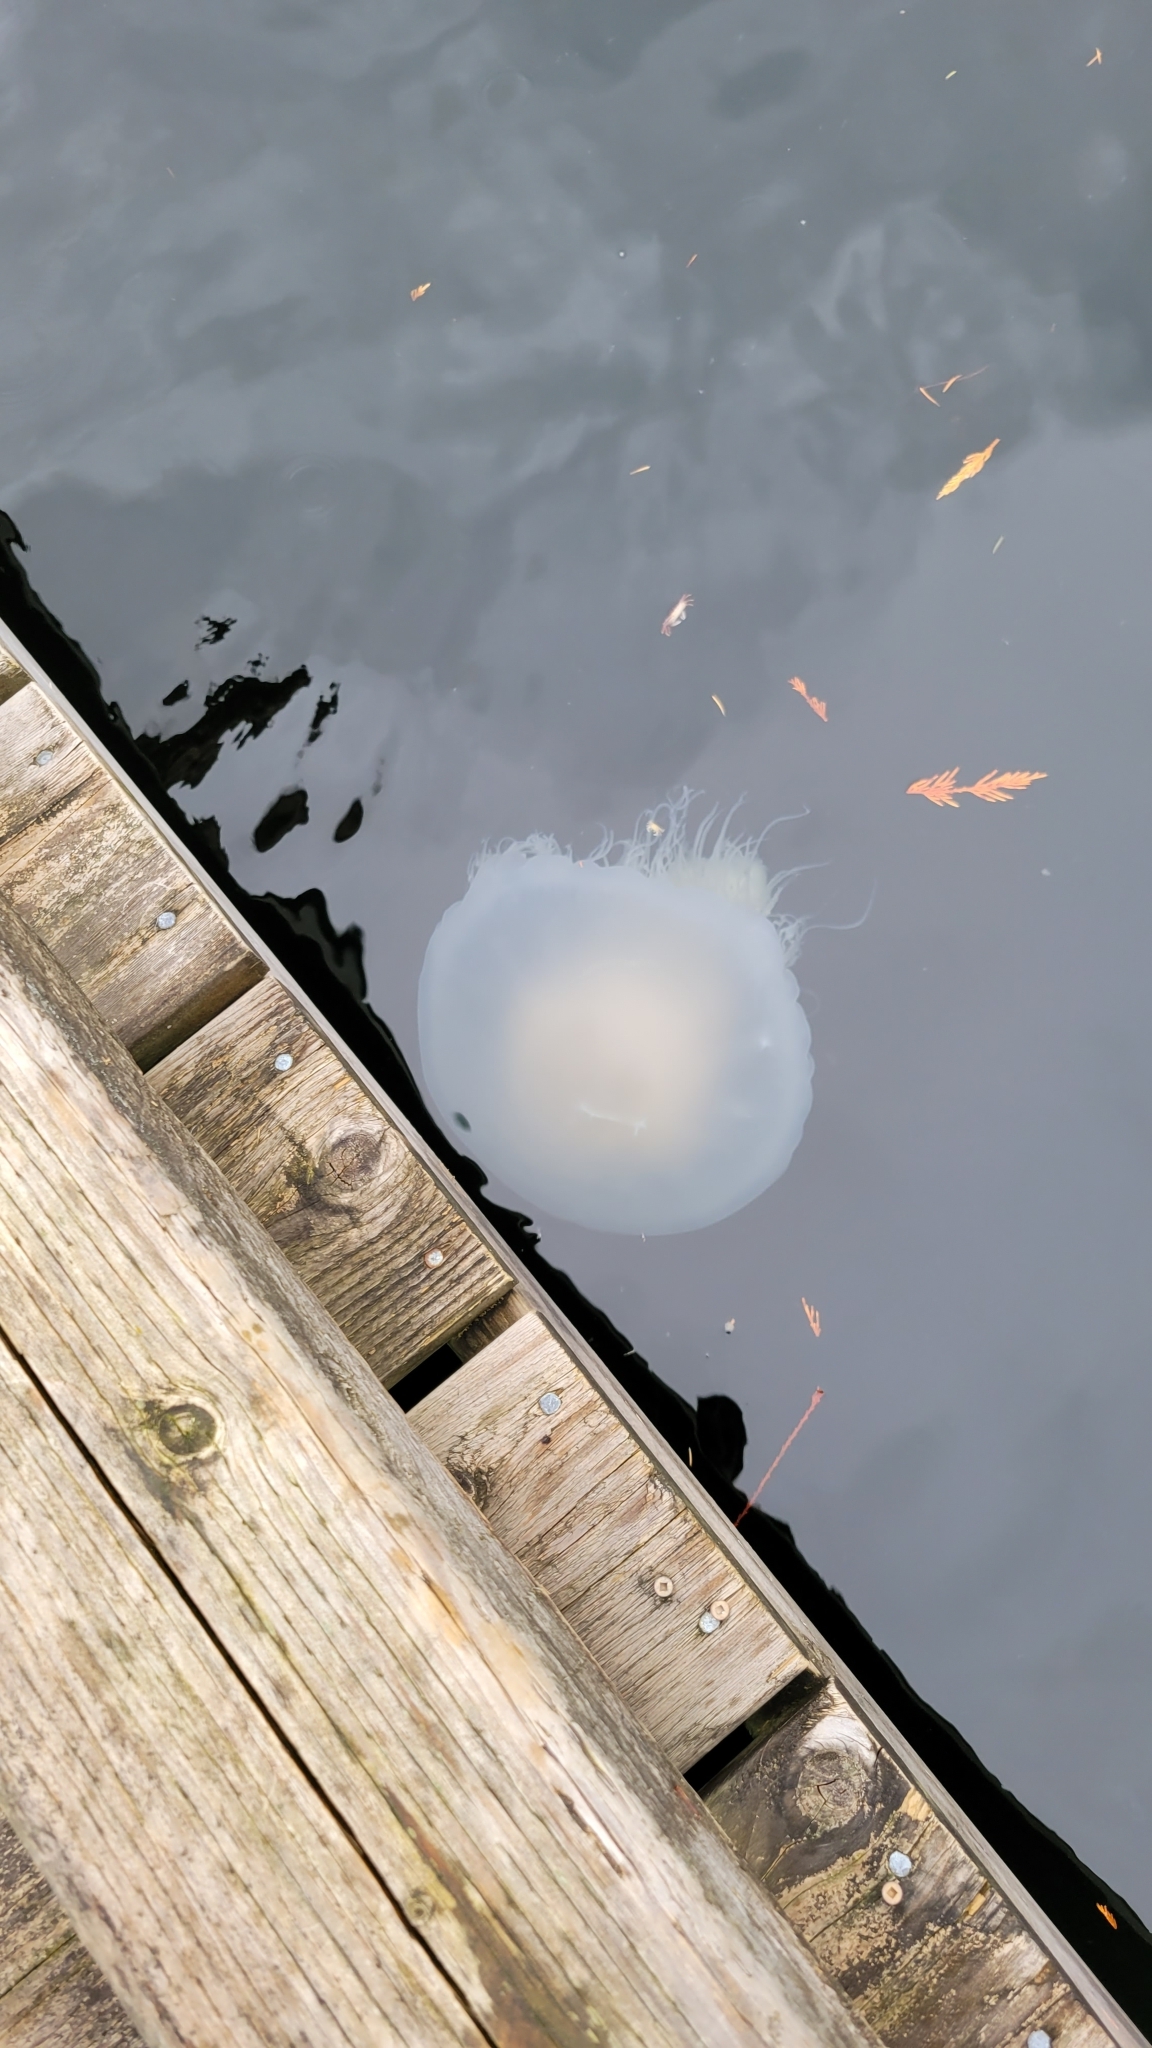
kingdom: Animalia
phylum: Cnidaria
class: Scyphozoa
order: Semaeostomeae
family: Phacellophoridae
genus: Phacellophora
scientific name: Phacellophora camtschatica
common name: Fried-egg jellyfish
